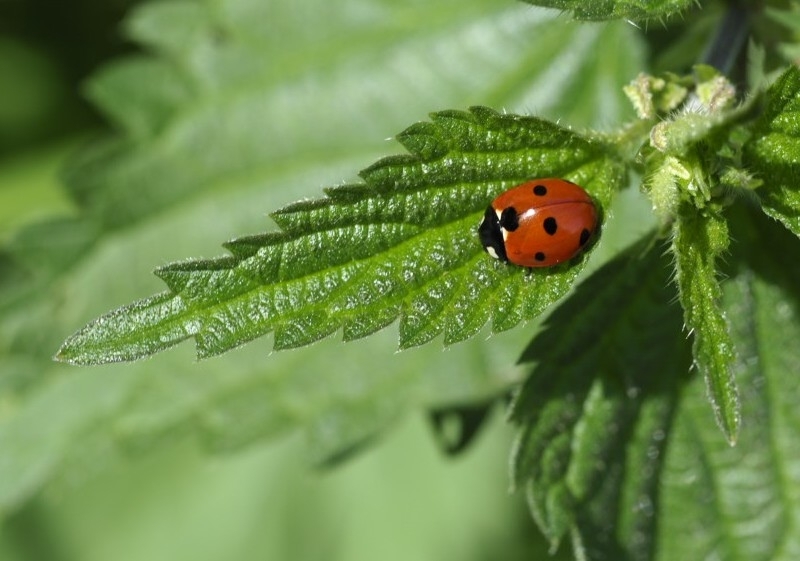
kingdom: Animalia
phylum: Arthropoda
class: Insecta
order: Coleoptera
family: Coccinellidae
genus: Coccinella
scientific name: Coccinella septempunctata
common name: Sevenspotted lady beetle
